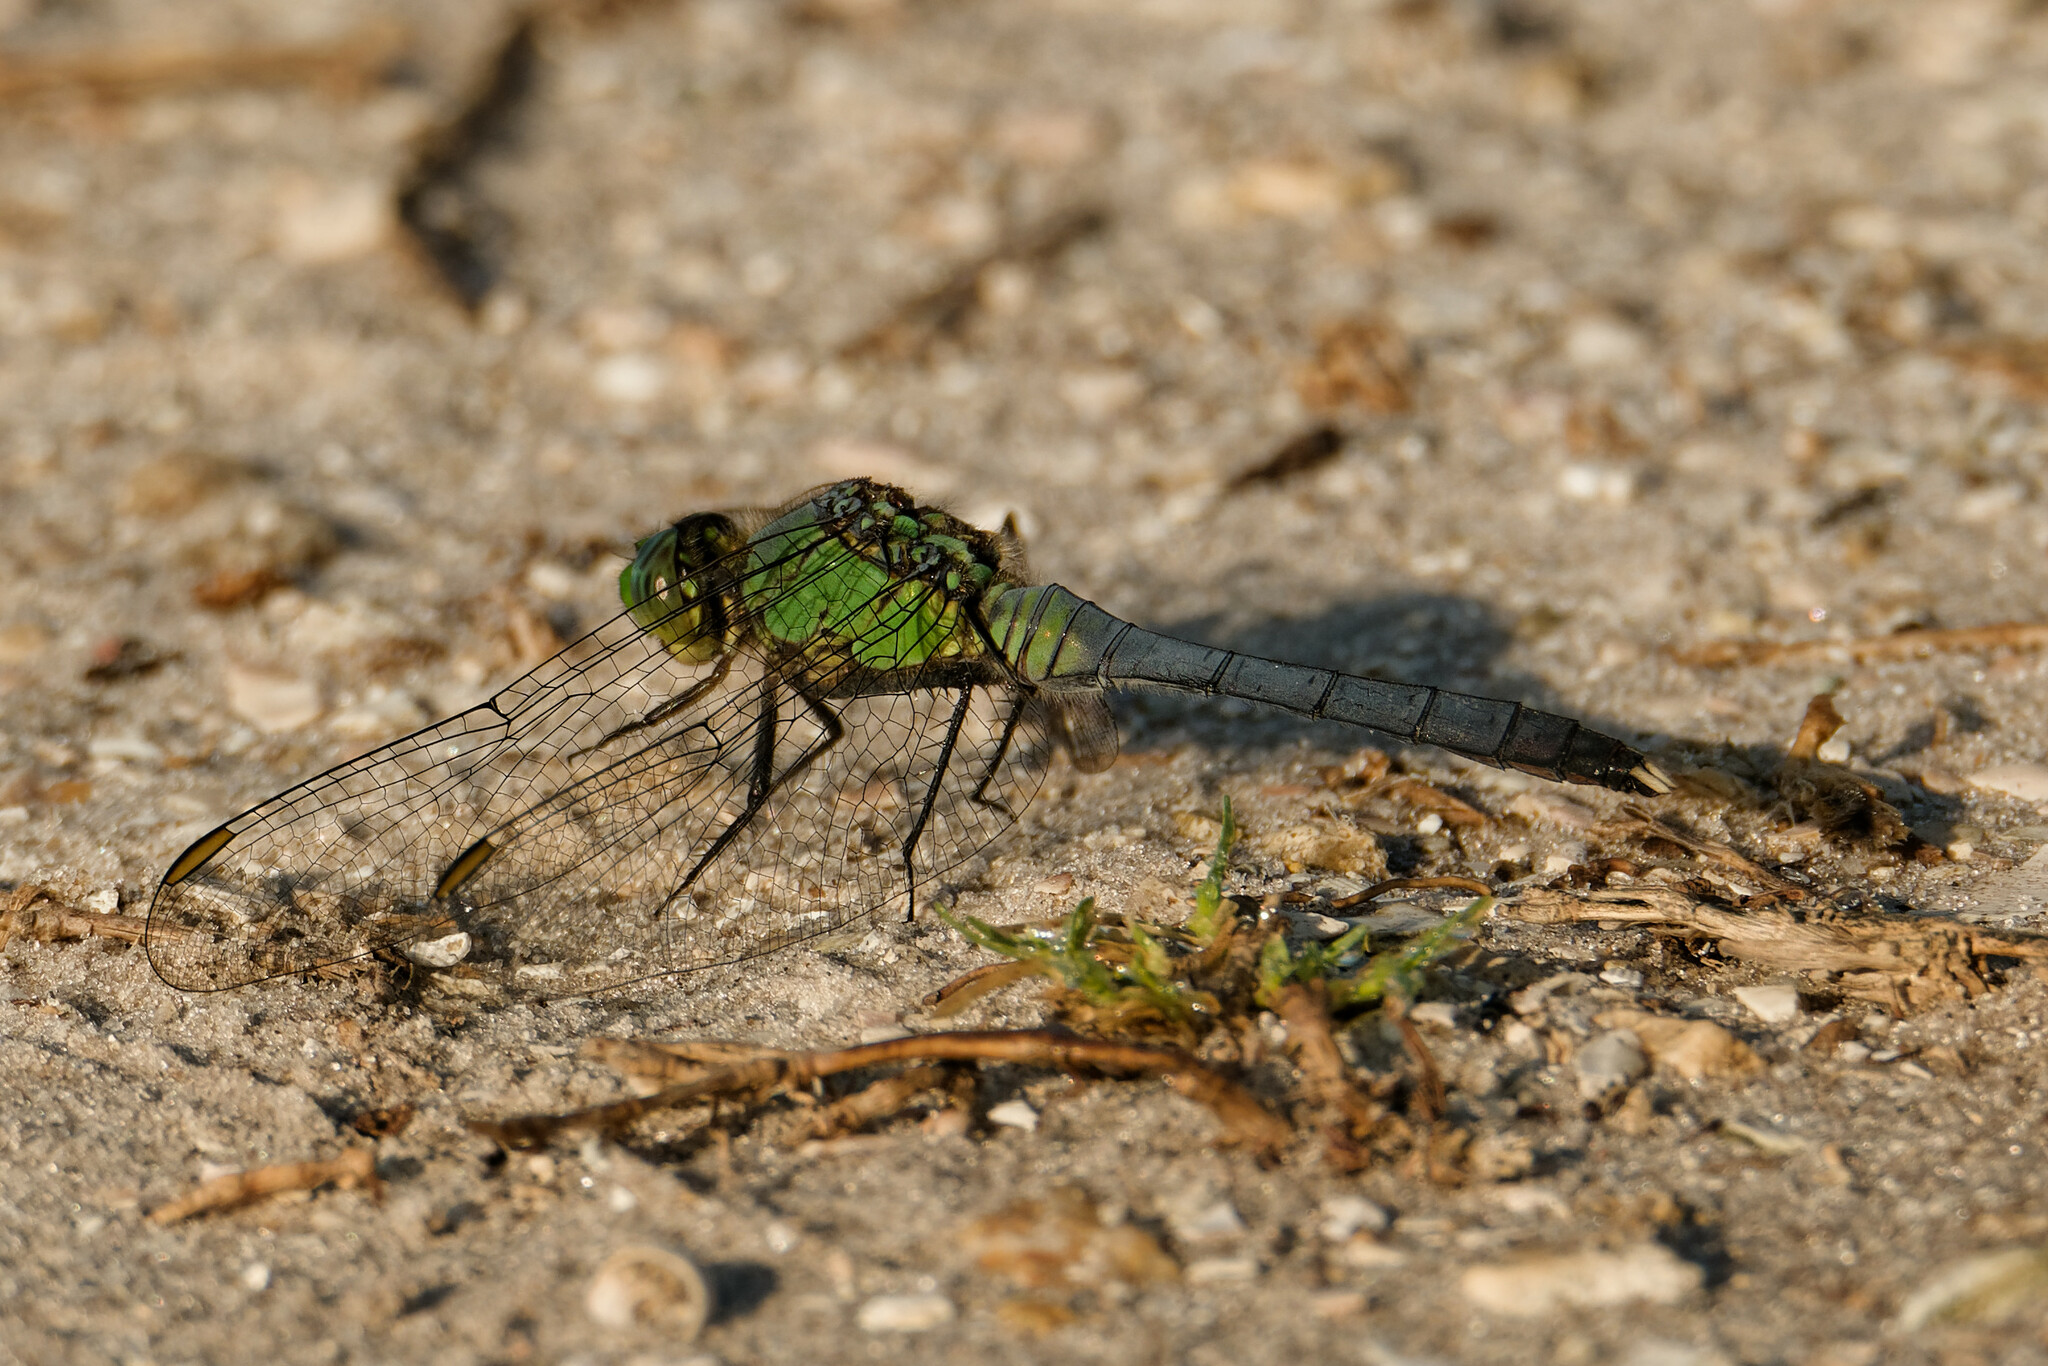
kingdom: Animalia
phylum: Arthropoda
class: Insecta
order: Odonata
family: Libellulidae
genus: Erythemis
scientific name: Erythemis simplicicollis
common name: Eastern pondhawk
